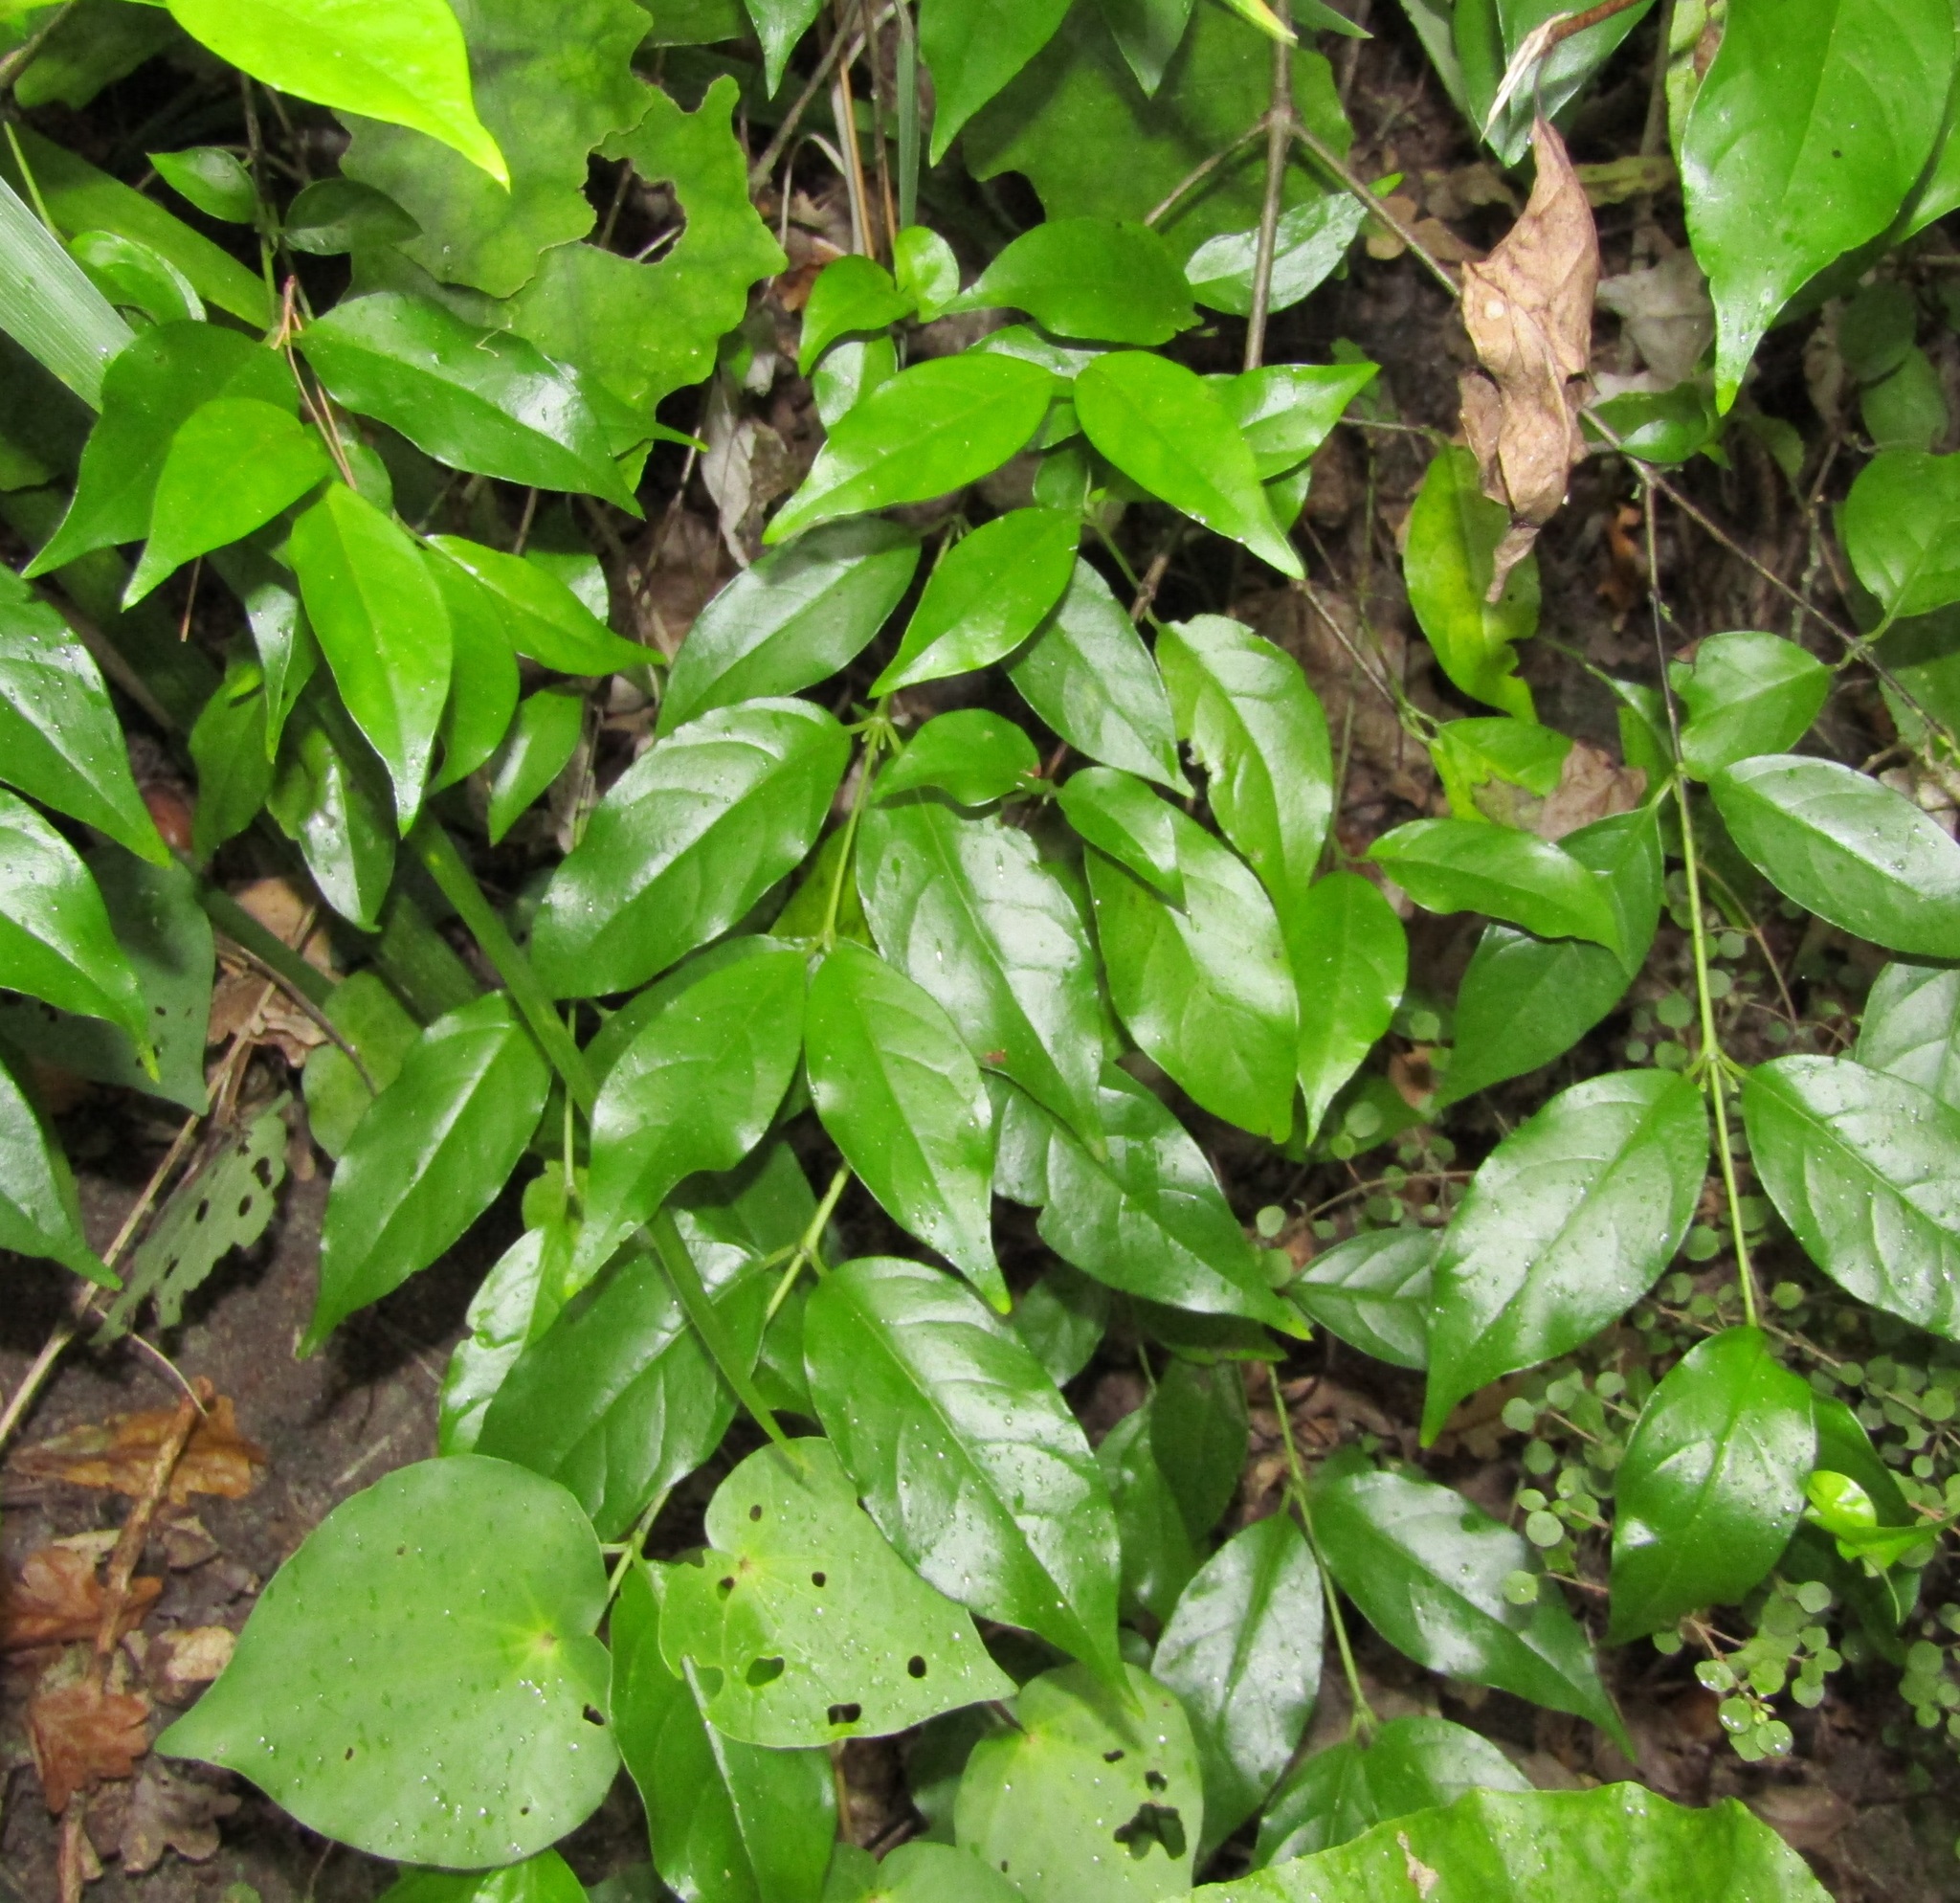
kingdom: Plantae
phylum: Tracheophyta
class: Magnoliopsida
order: Gentianales
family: Loganiaceae
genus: Geniostoma
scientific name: Geniostoma ligustrifolium
